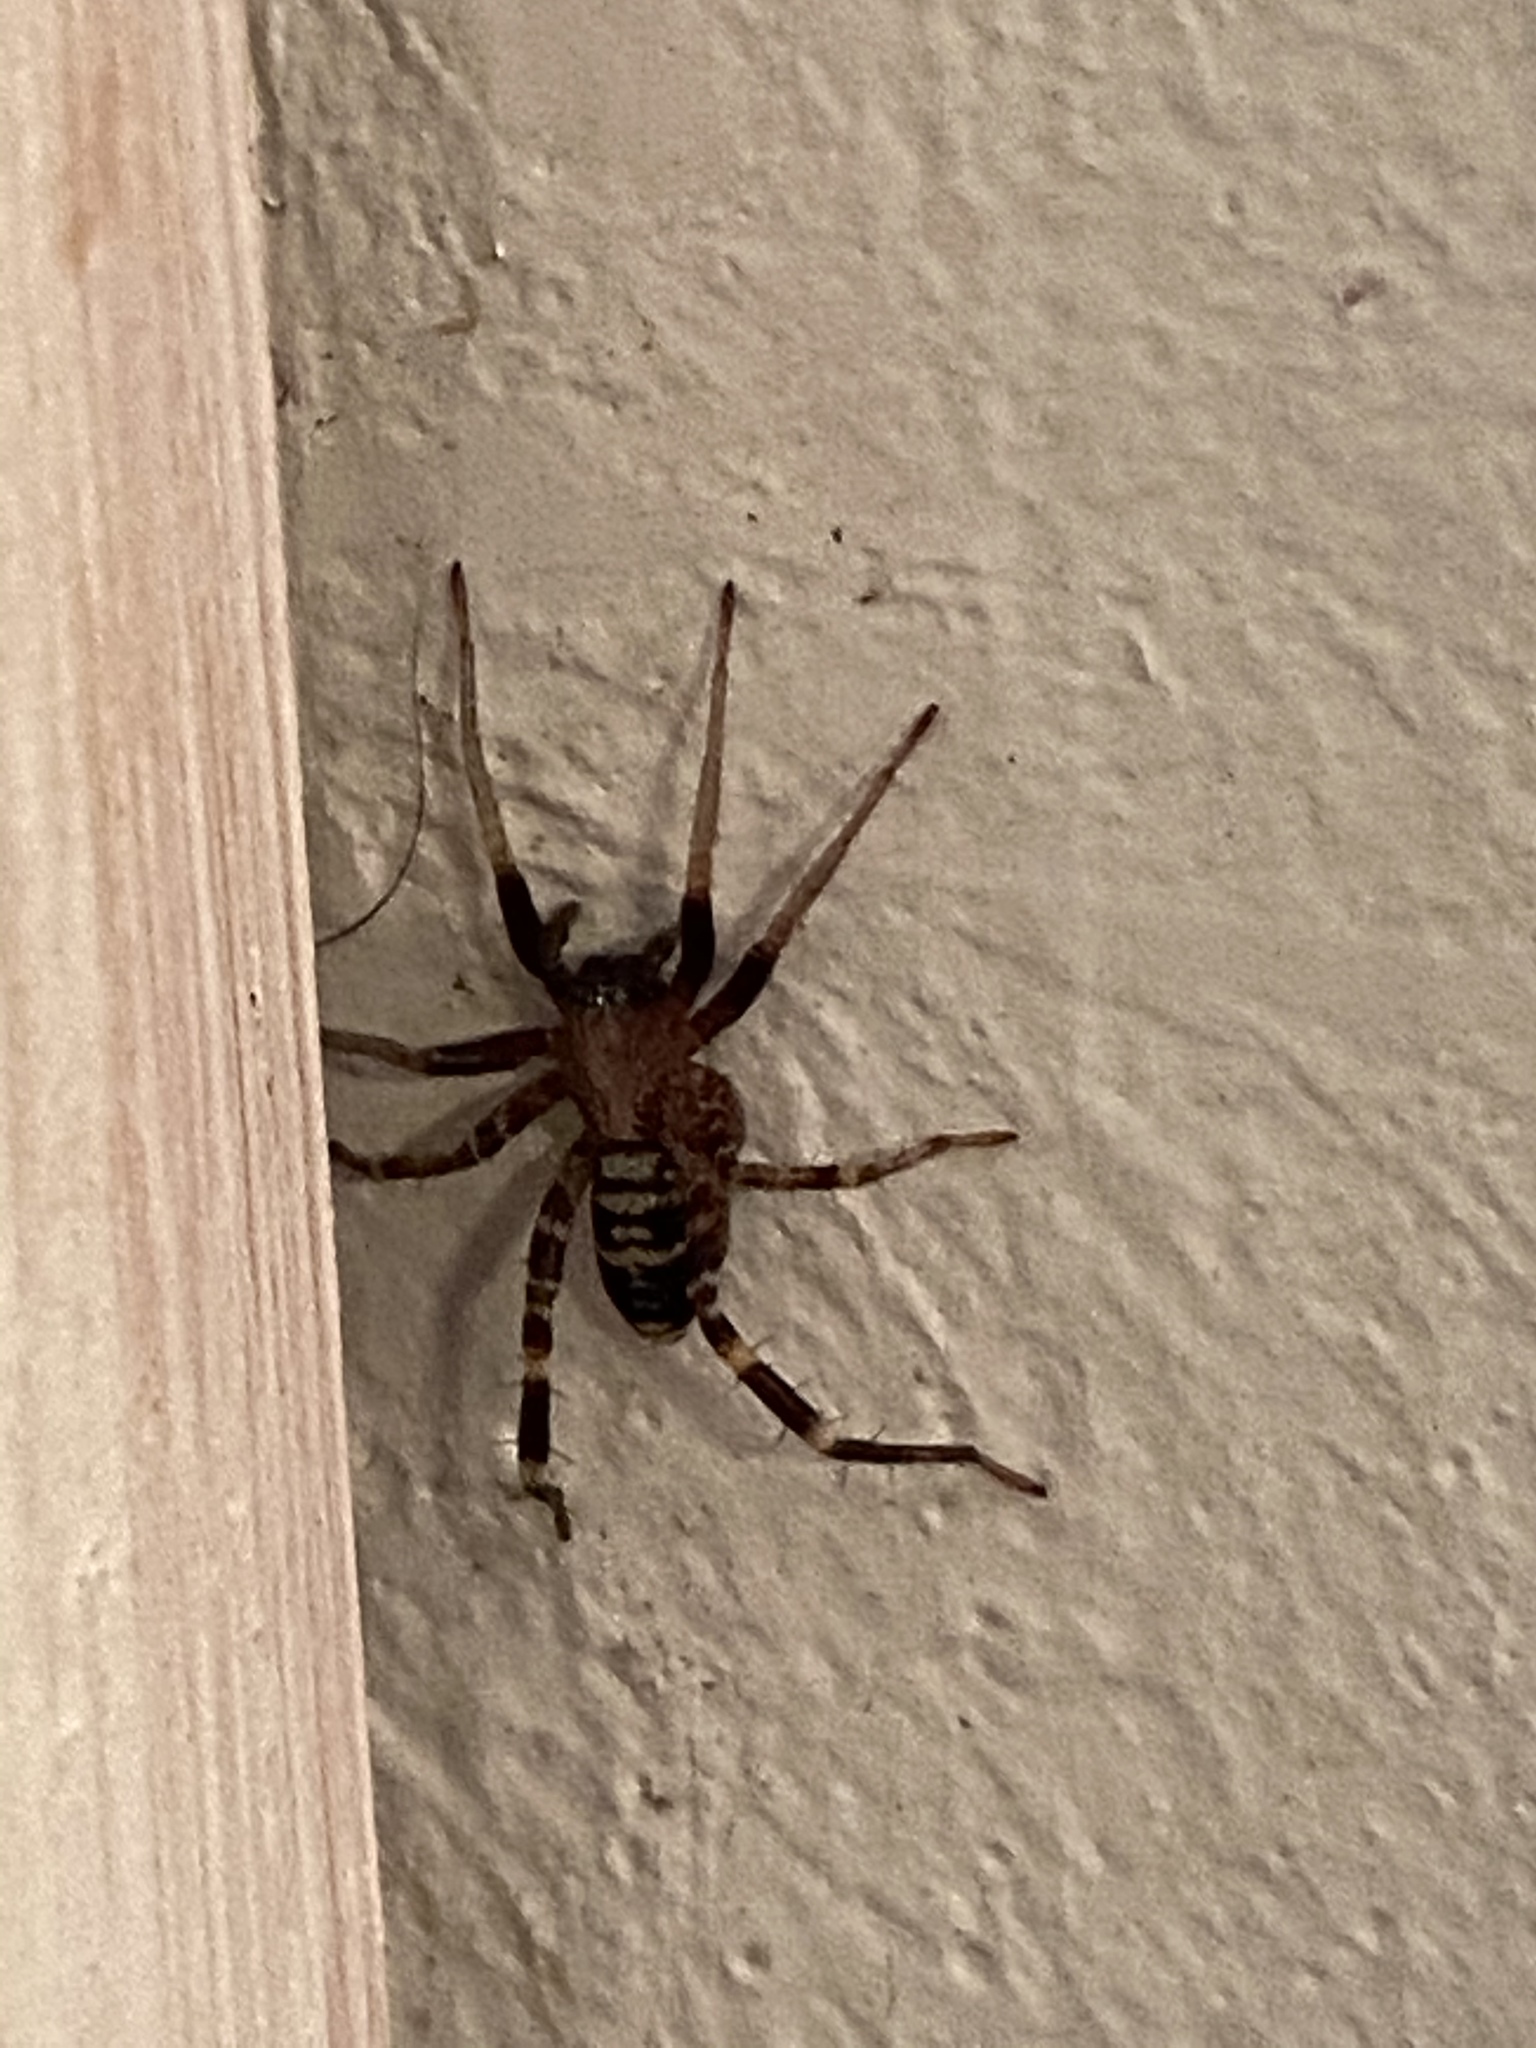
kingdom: Animalia
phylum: Arthropoda
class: Arachnida
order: Araneae
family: Corinnidae
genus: Castianeira
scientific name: Castianeira longipalpa
